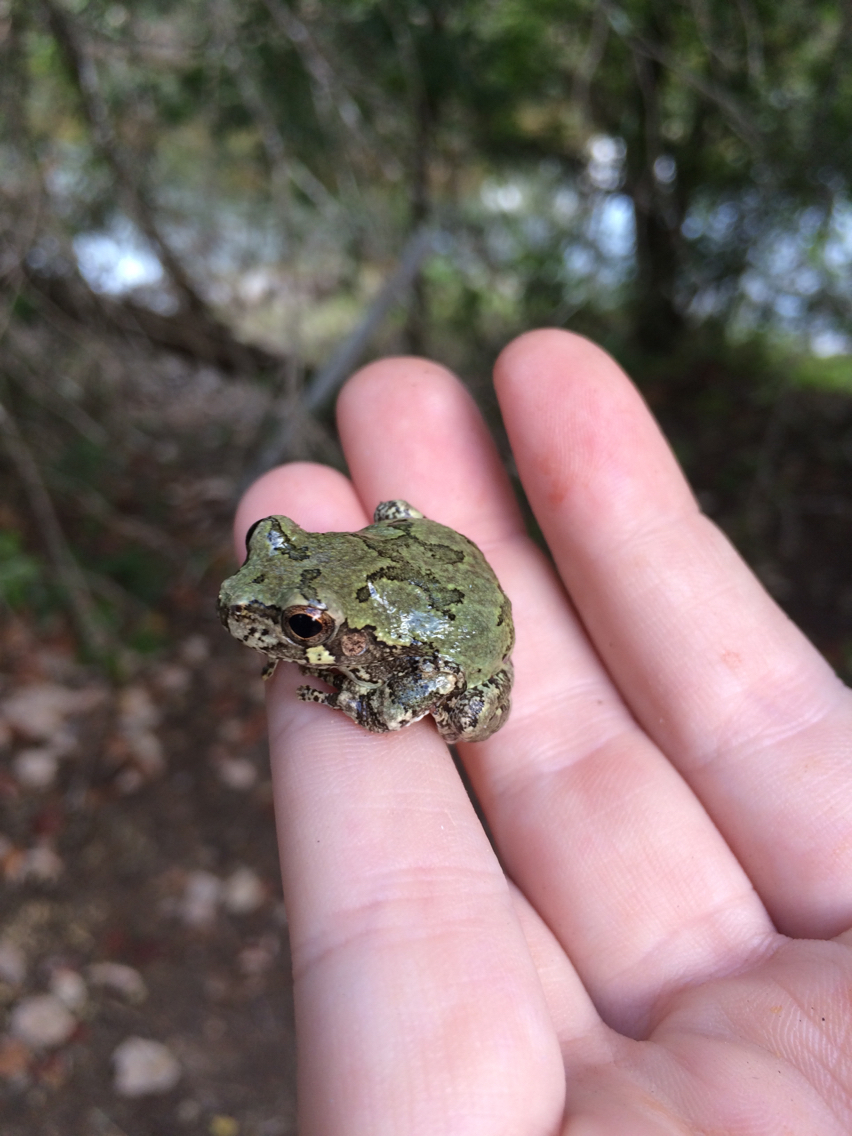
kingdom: Animalia
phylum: Chordata
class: Amphibia
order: Anura
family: Hylidae
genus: Dryophytes
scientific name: Dryophytes versicolor
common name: Gray treefrog
